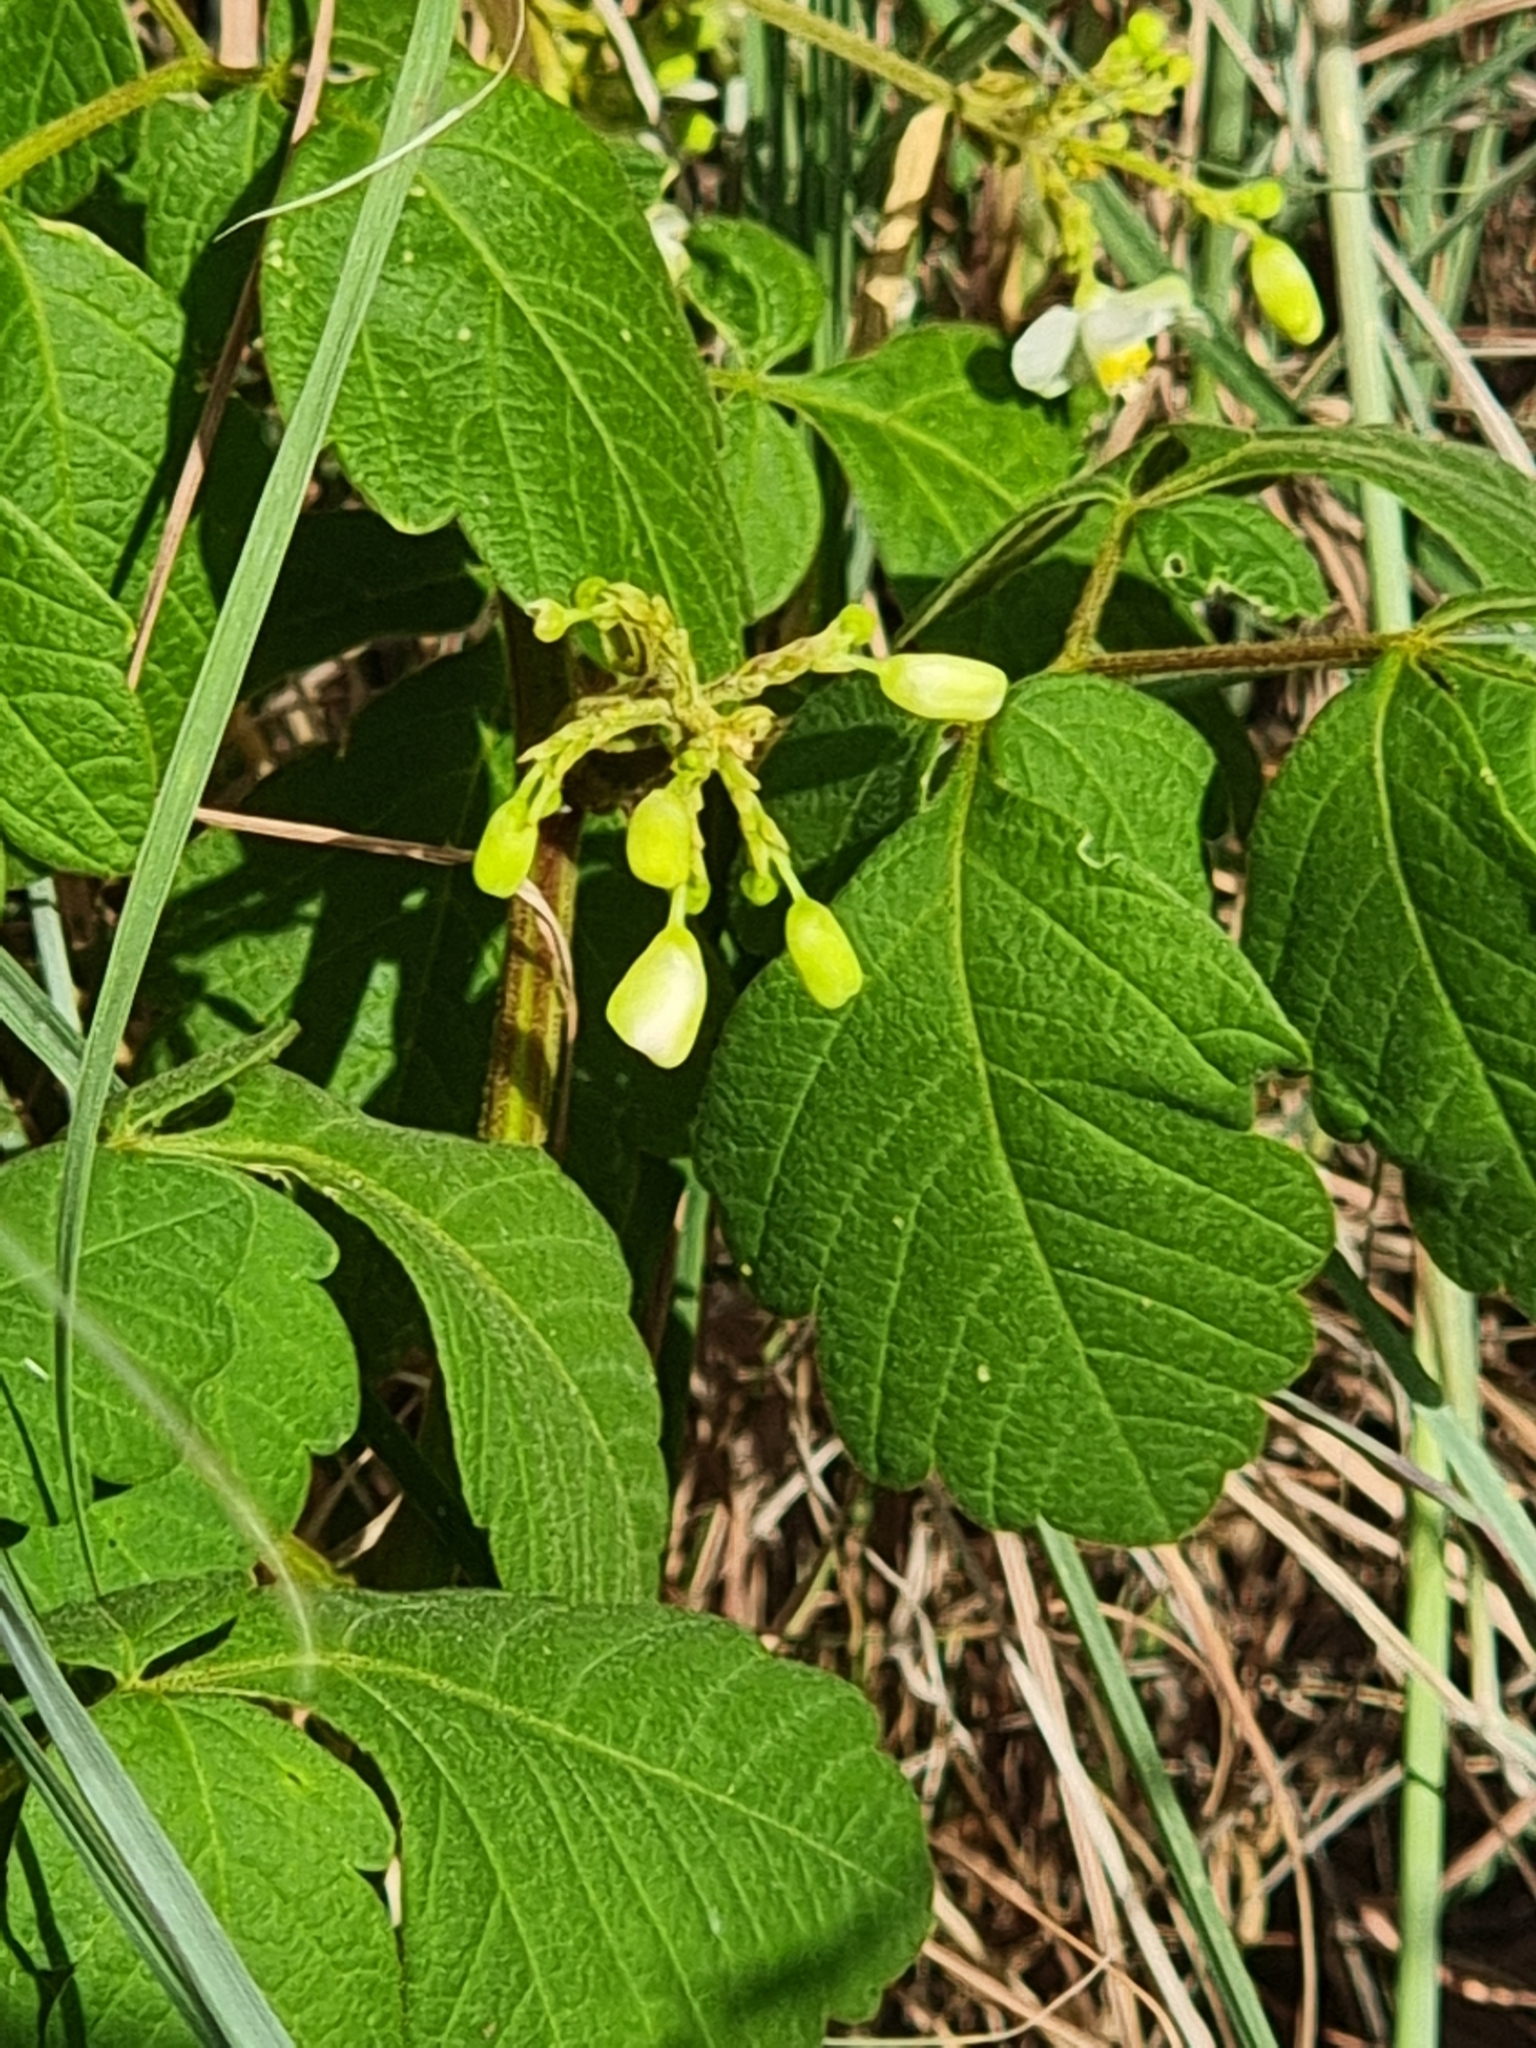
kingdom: Plantae
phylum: Tracheophyta
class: Magnoliopsida
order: Sapindales
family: Sapindaceae
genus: Cardiospermum
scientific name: Cardiospermum grandiflorum
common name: Balloon vine
